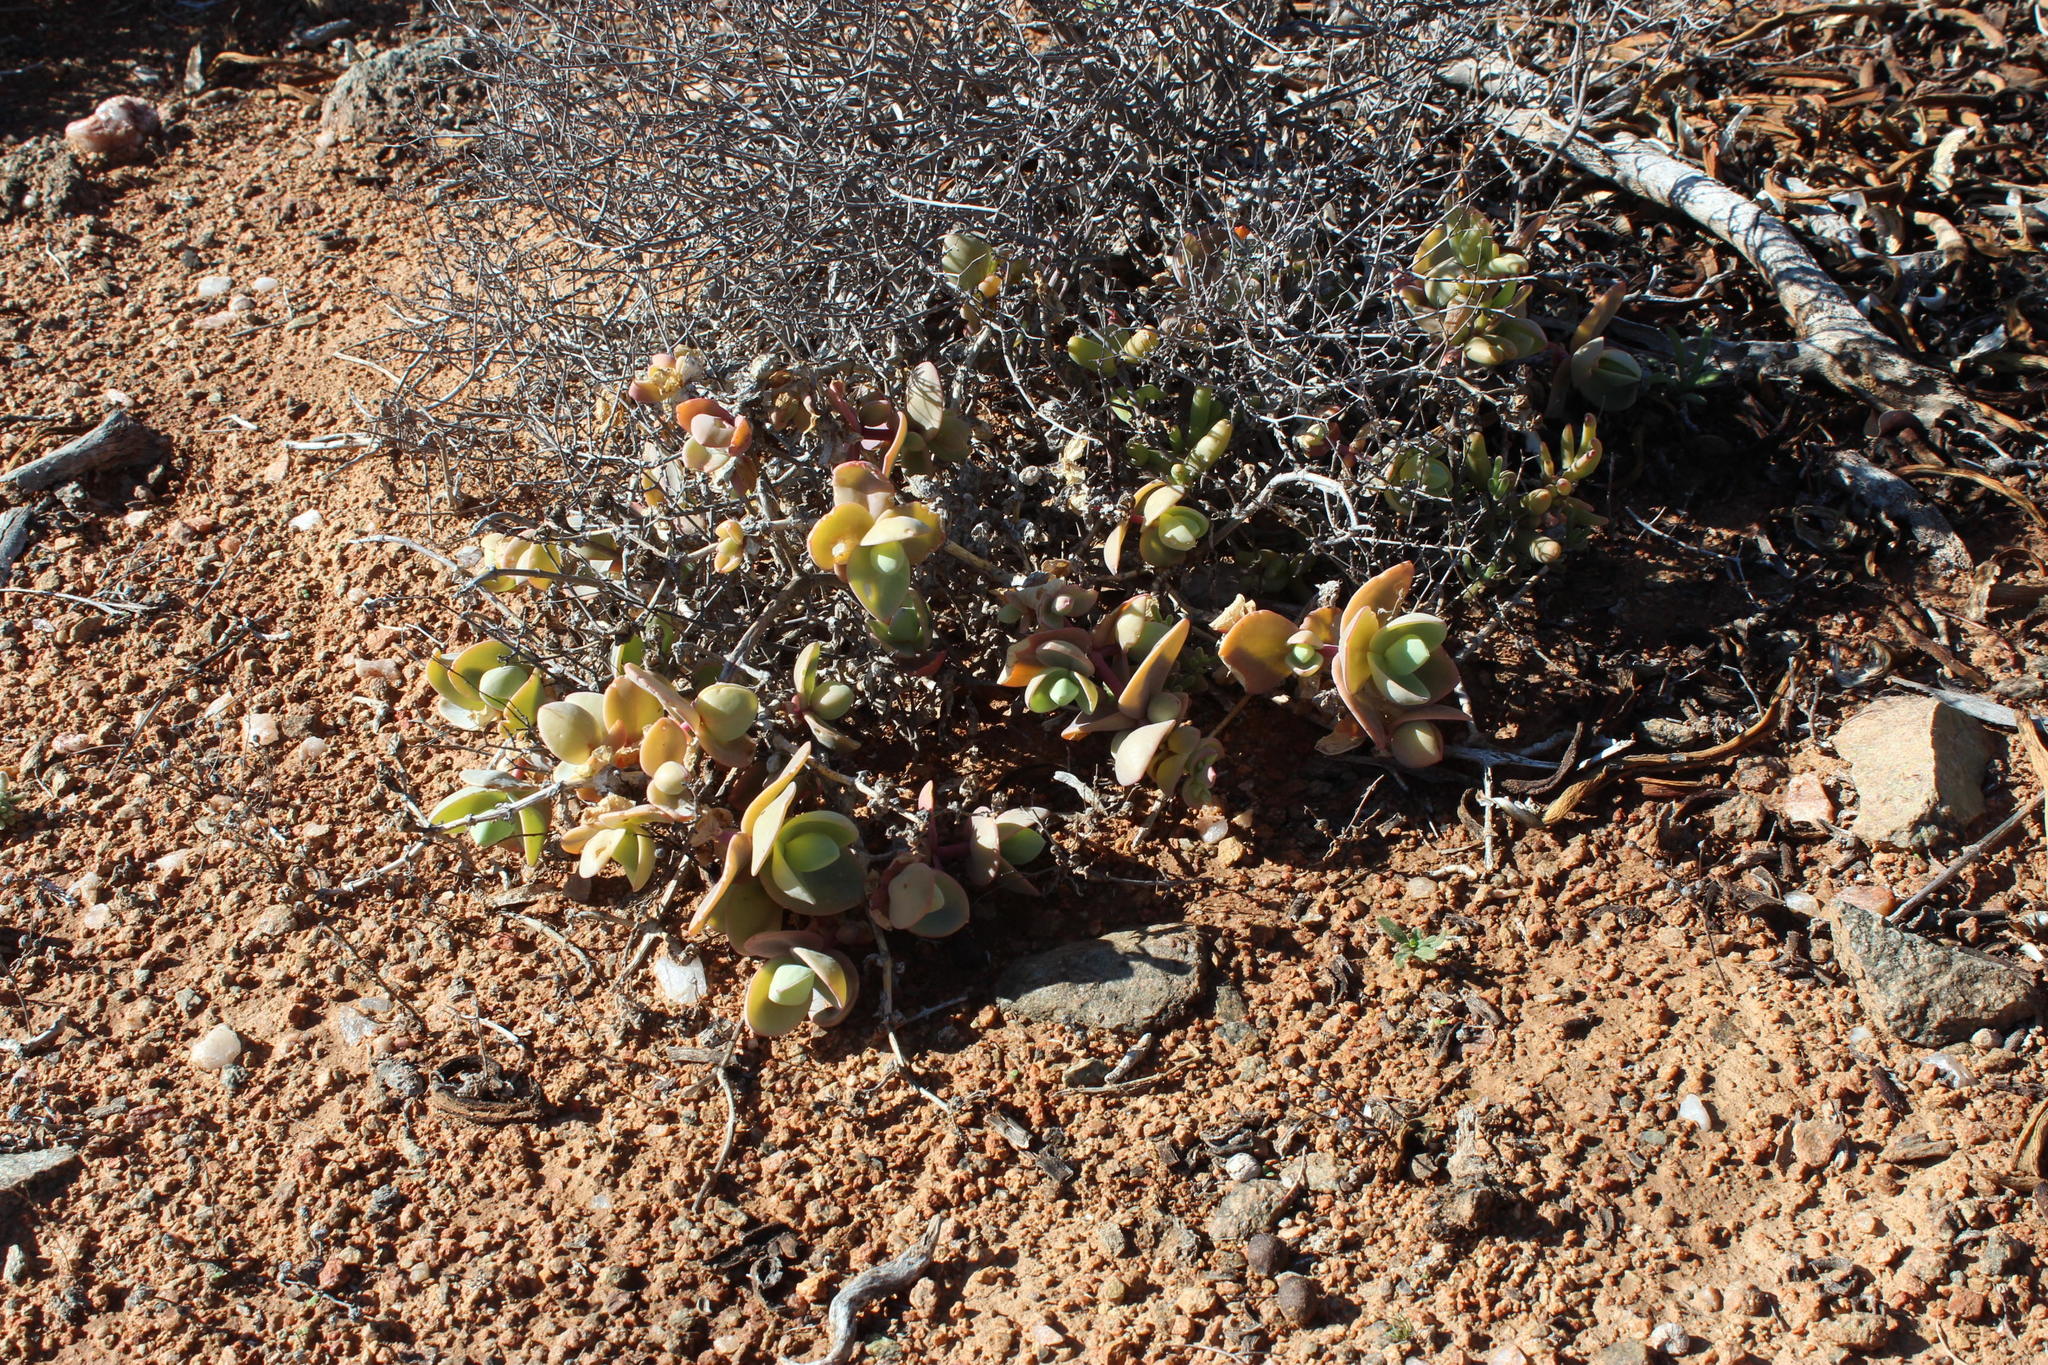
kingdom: Plantae
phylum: Tracheophyta
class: Magnoliopsida
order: Caryophyllales
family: Aizoaceae
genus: Mesembryanthemum
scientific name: Mesembryanthemum sladenianum
